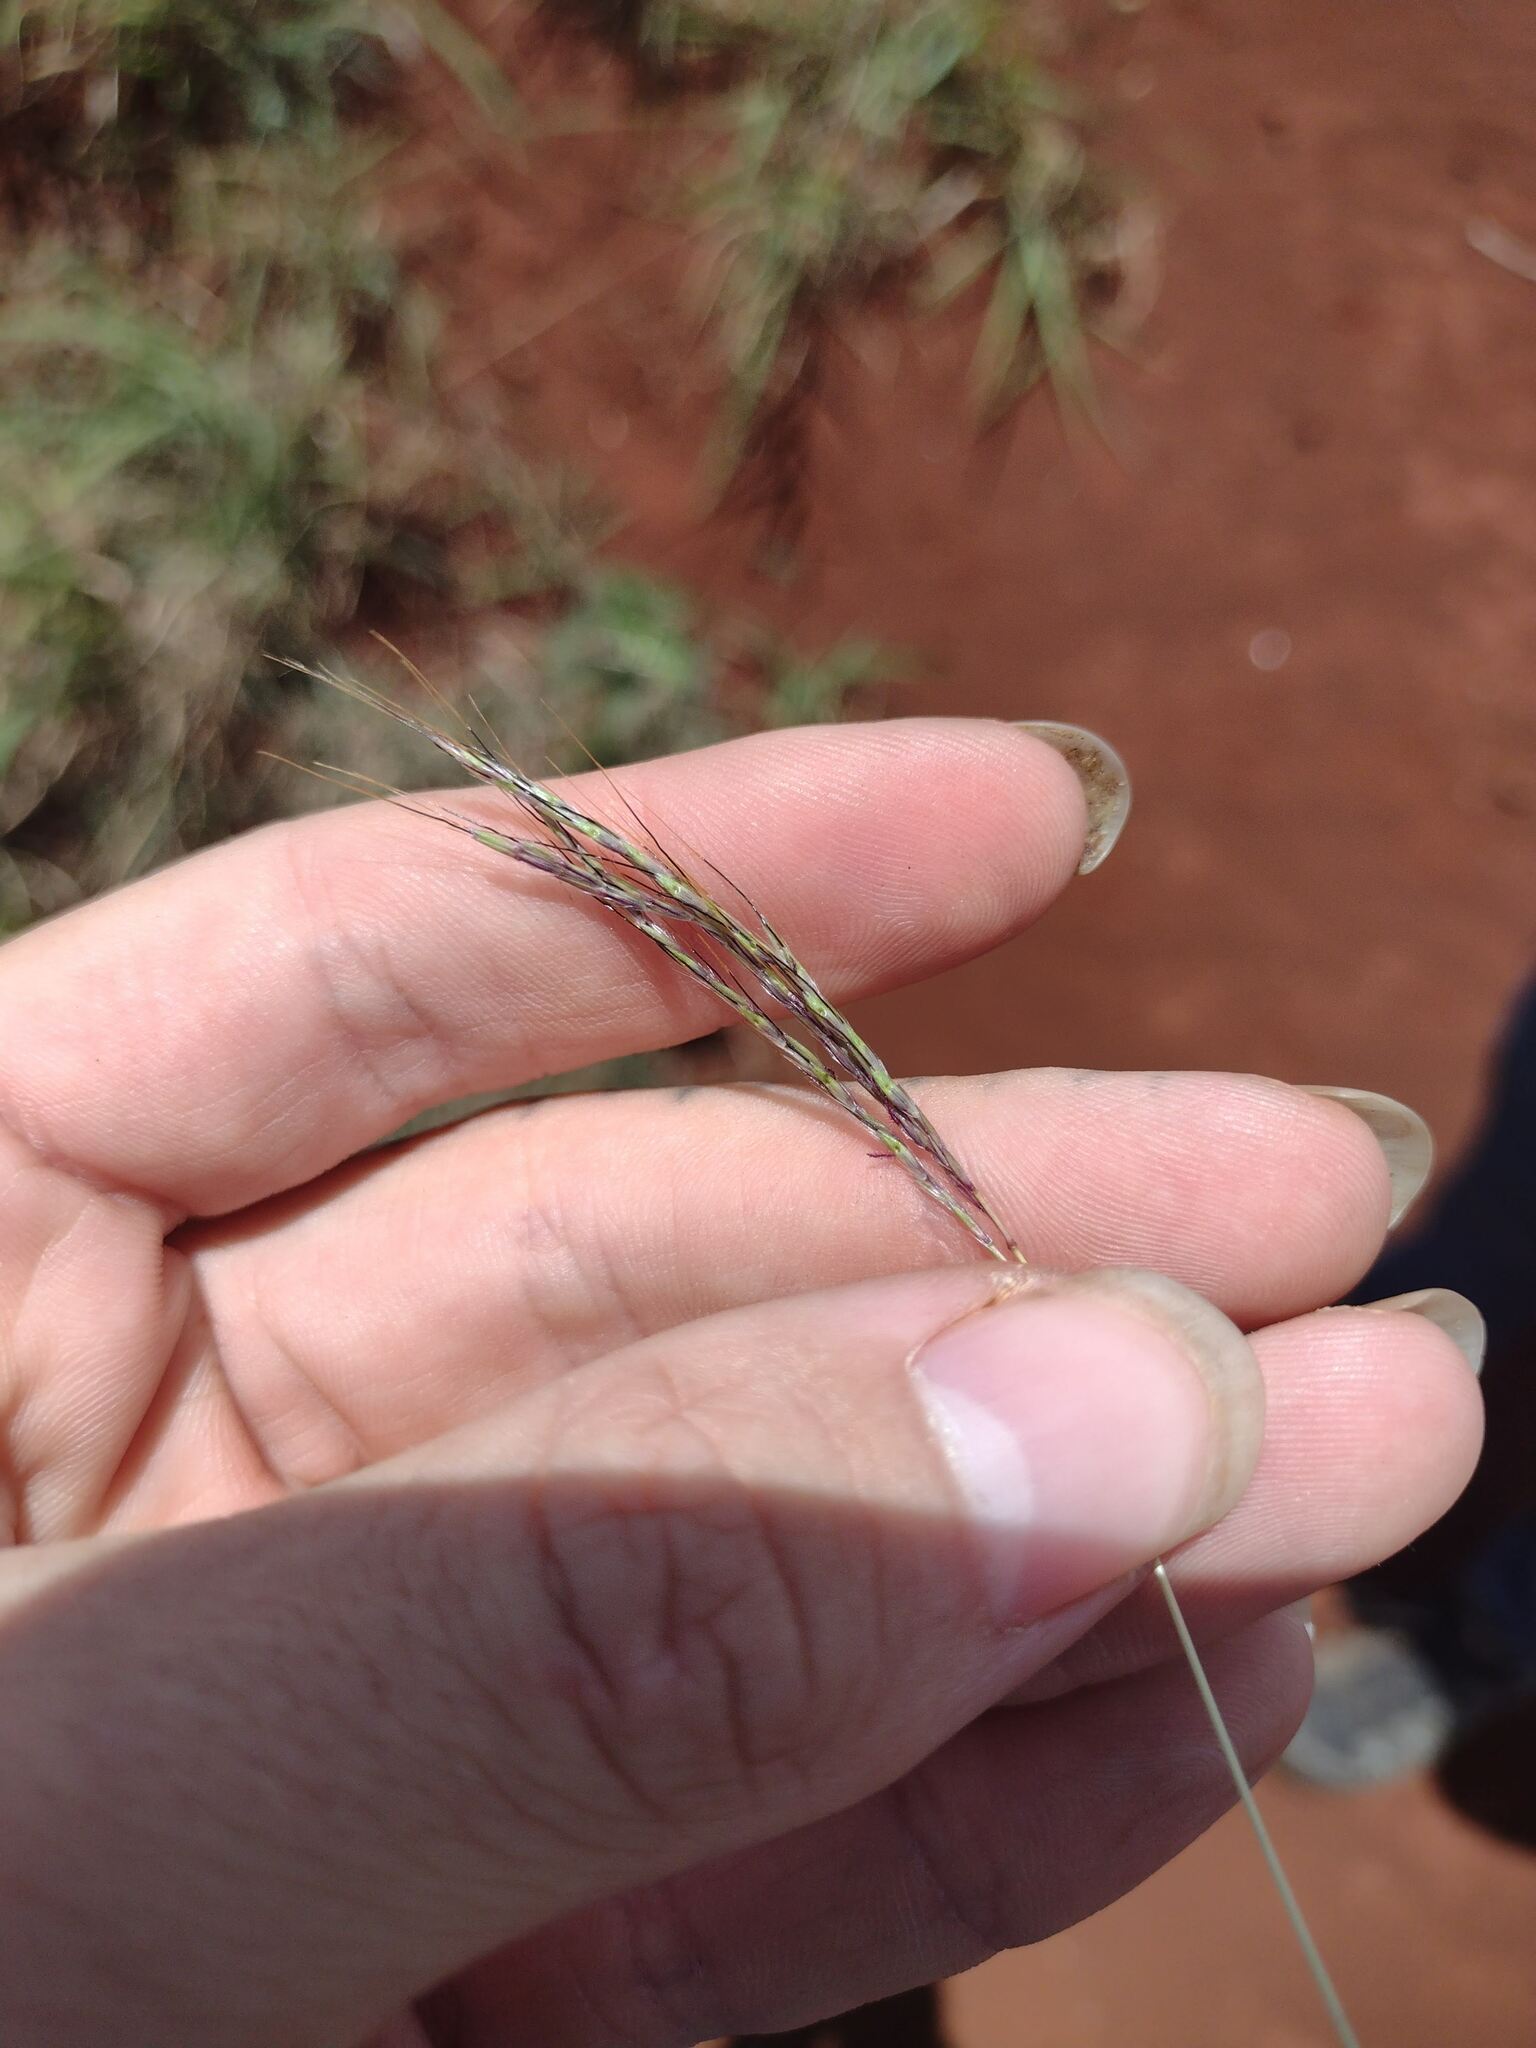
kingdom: Plantae
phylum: Tracheophyta
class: Liliopsida
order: Poales
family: Poaceae
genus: Bothriochloa
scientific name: Bothriochloa pertusa
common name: Pitted beardgrass
